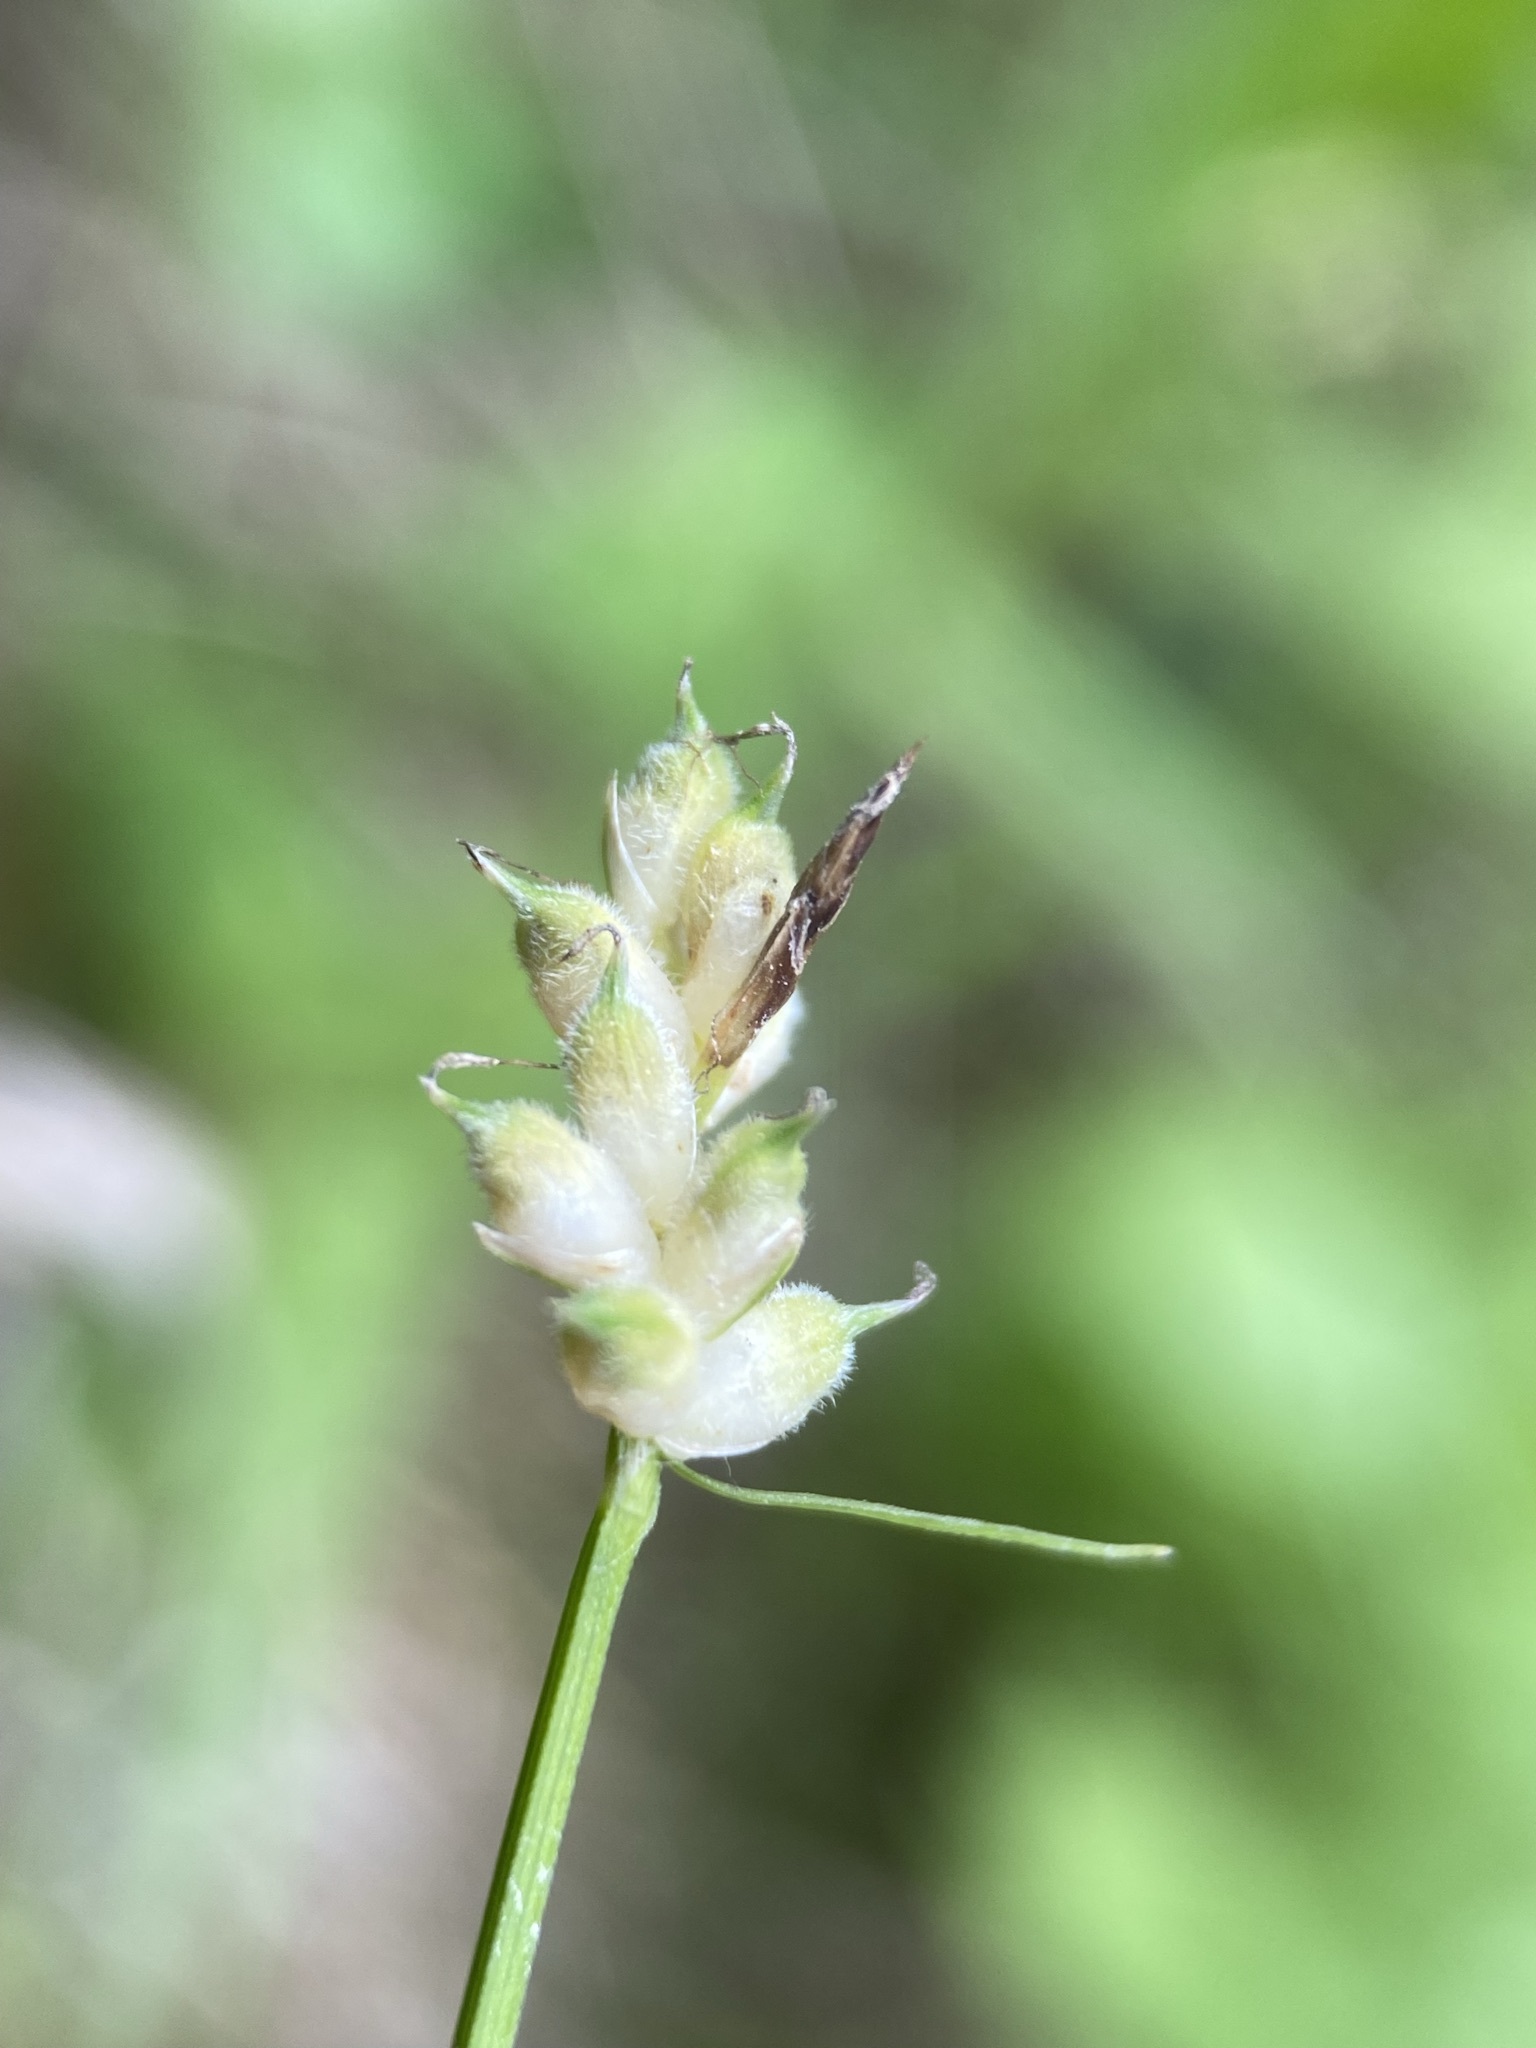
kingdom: Plantae
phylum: Tracheophyta
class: Liliopsida
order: Poales
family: Cyperaceae
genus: Carex
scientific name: Carex peckii
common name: Peck's oak sedge
